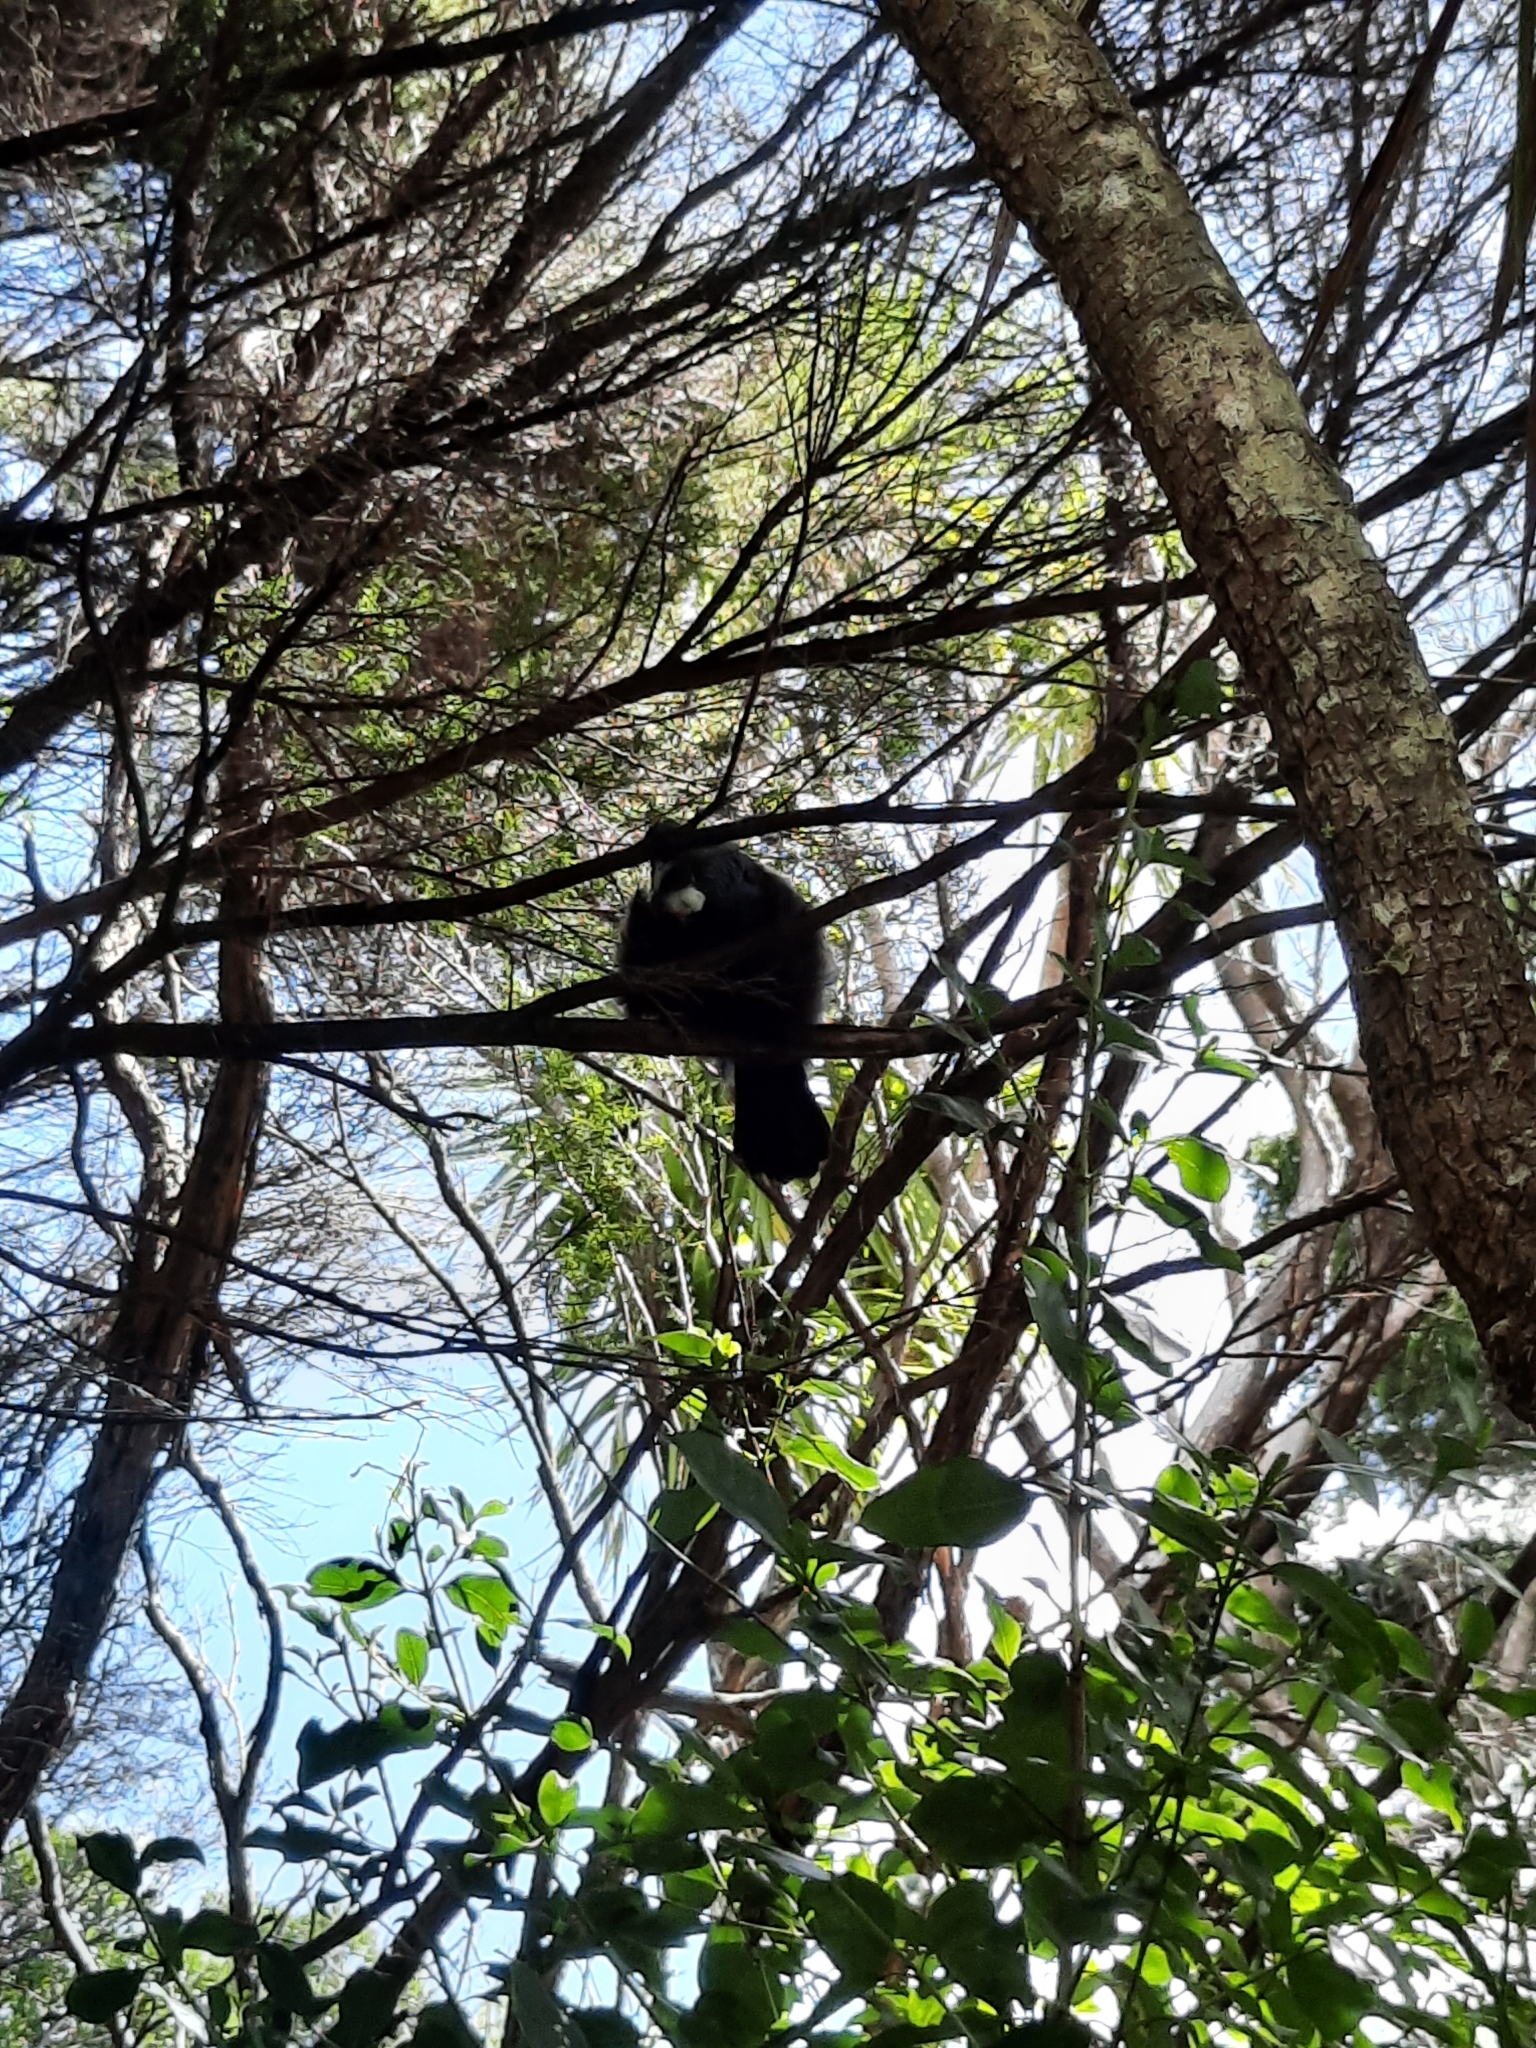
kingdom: Animalia
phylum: Chordata
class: Aves
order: Passeriformes
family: Meliphagidae
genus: Prosthemadera
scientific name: Prosthemadera novaeseelandiae
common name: Tui
